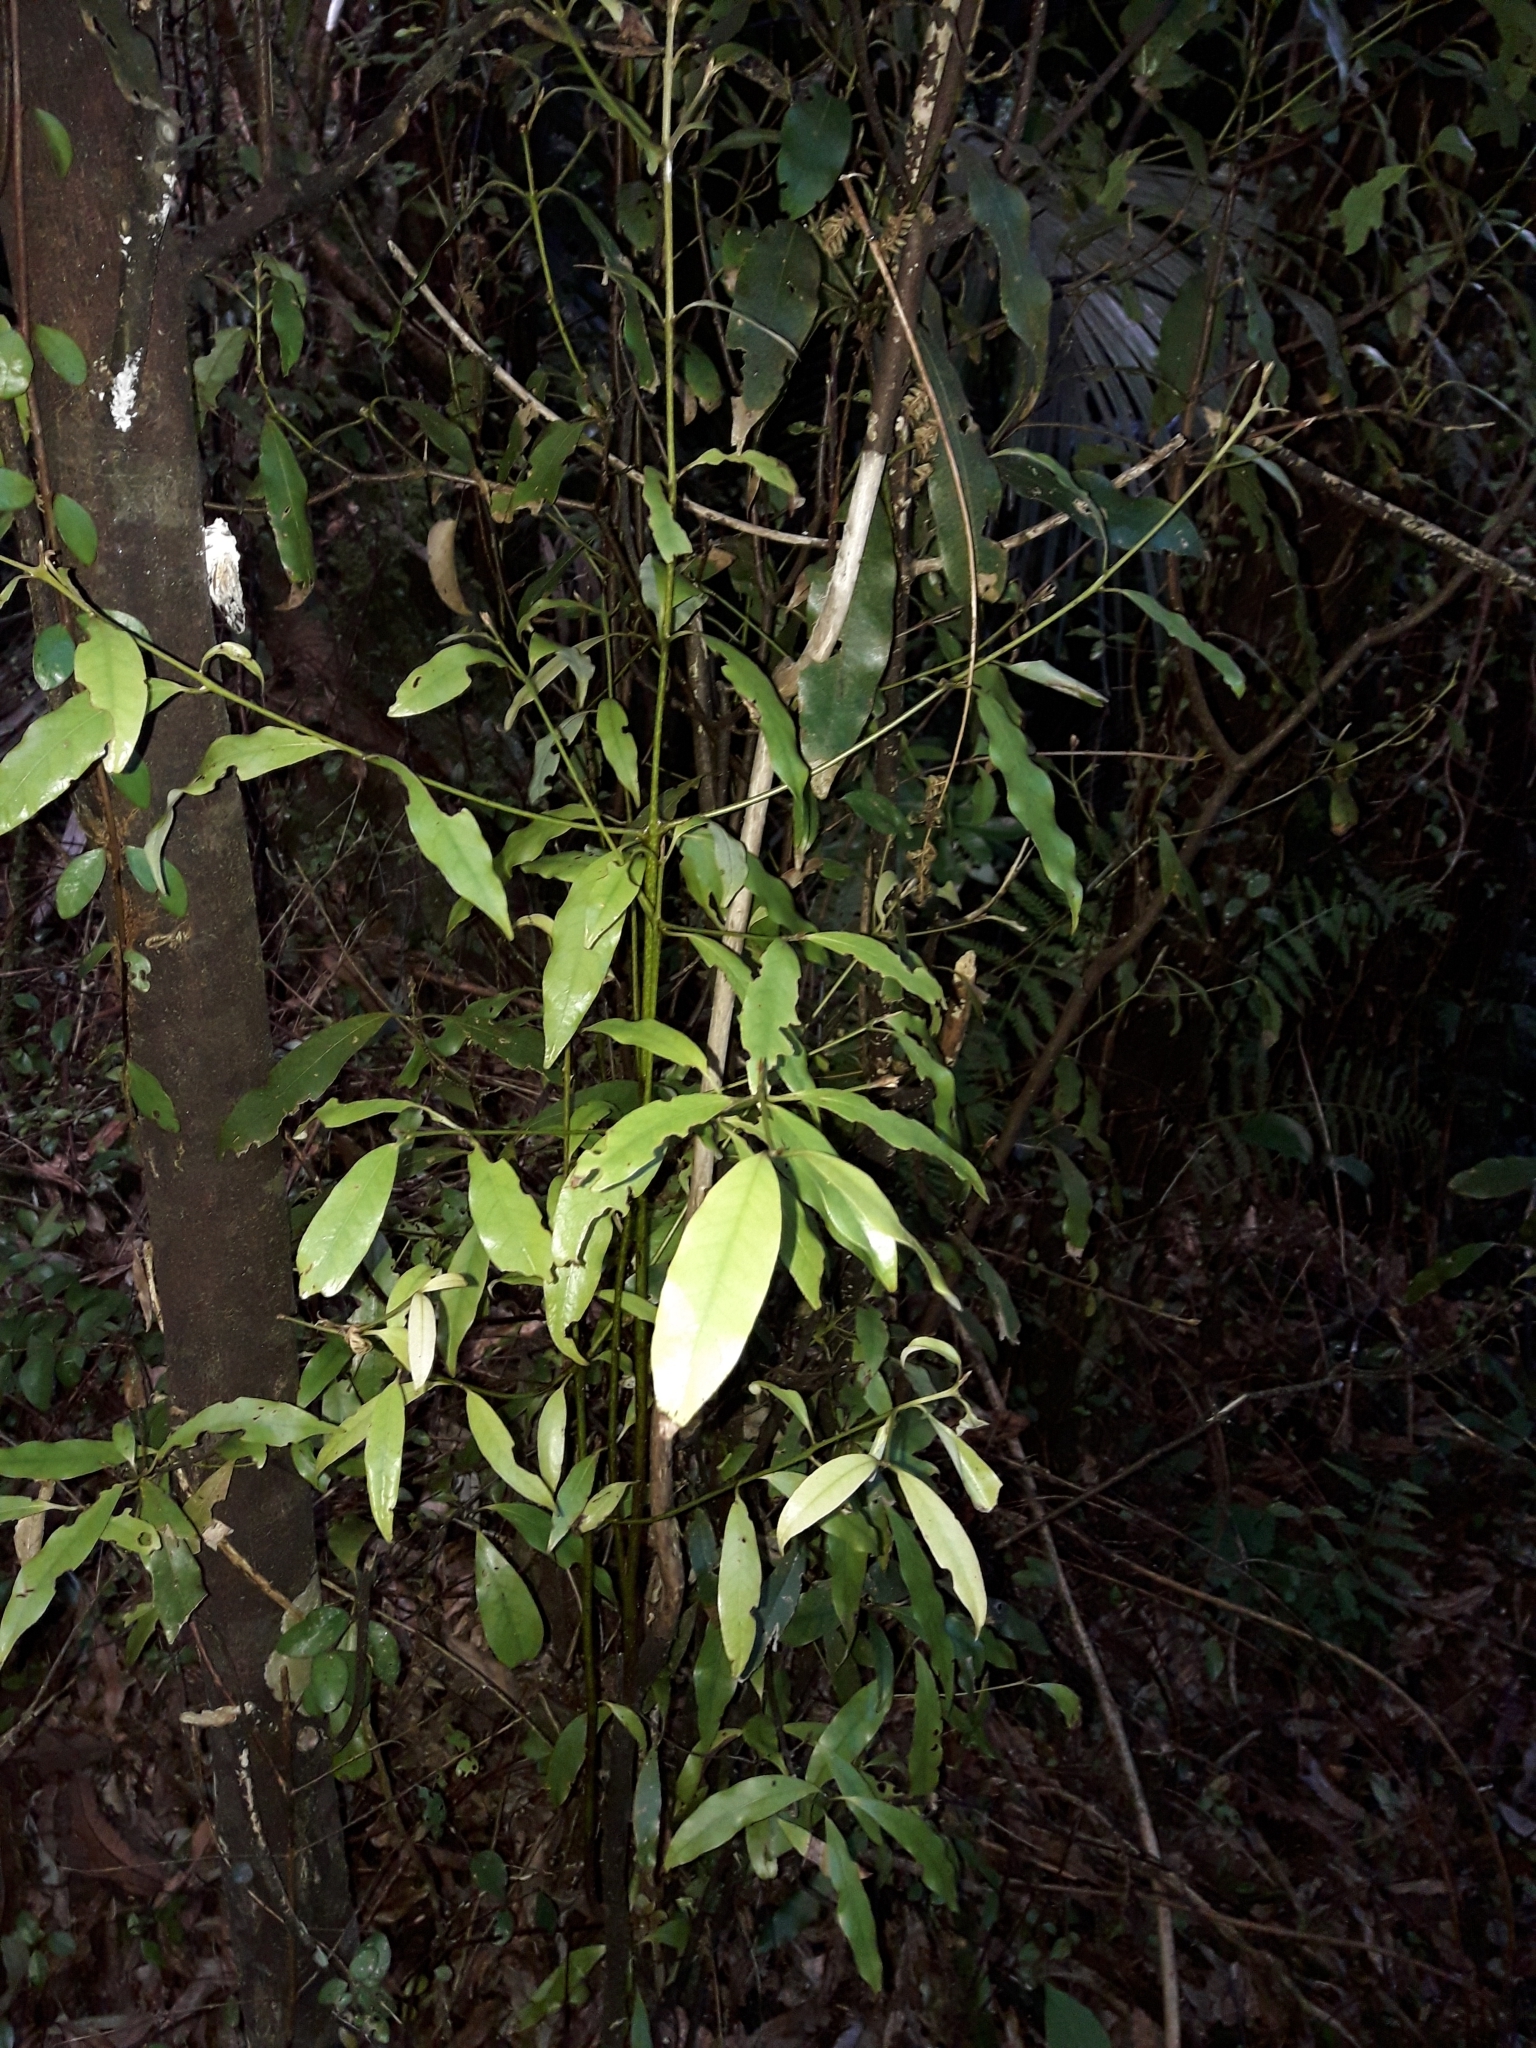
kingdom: Plantae
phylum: Tracheophyta
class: Magnoliopsida
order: Laurales
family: Lauraceae
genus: Beilschmiedia
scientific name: Beilschmiedia tawa
